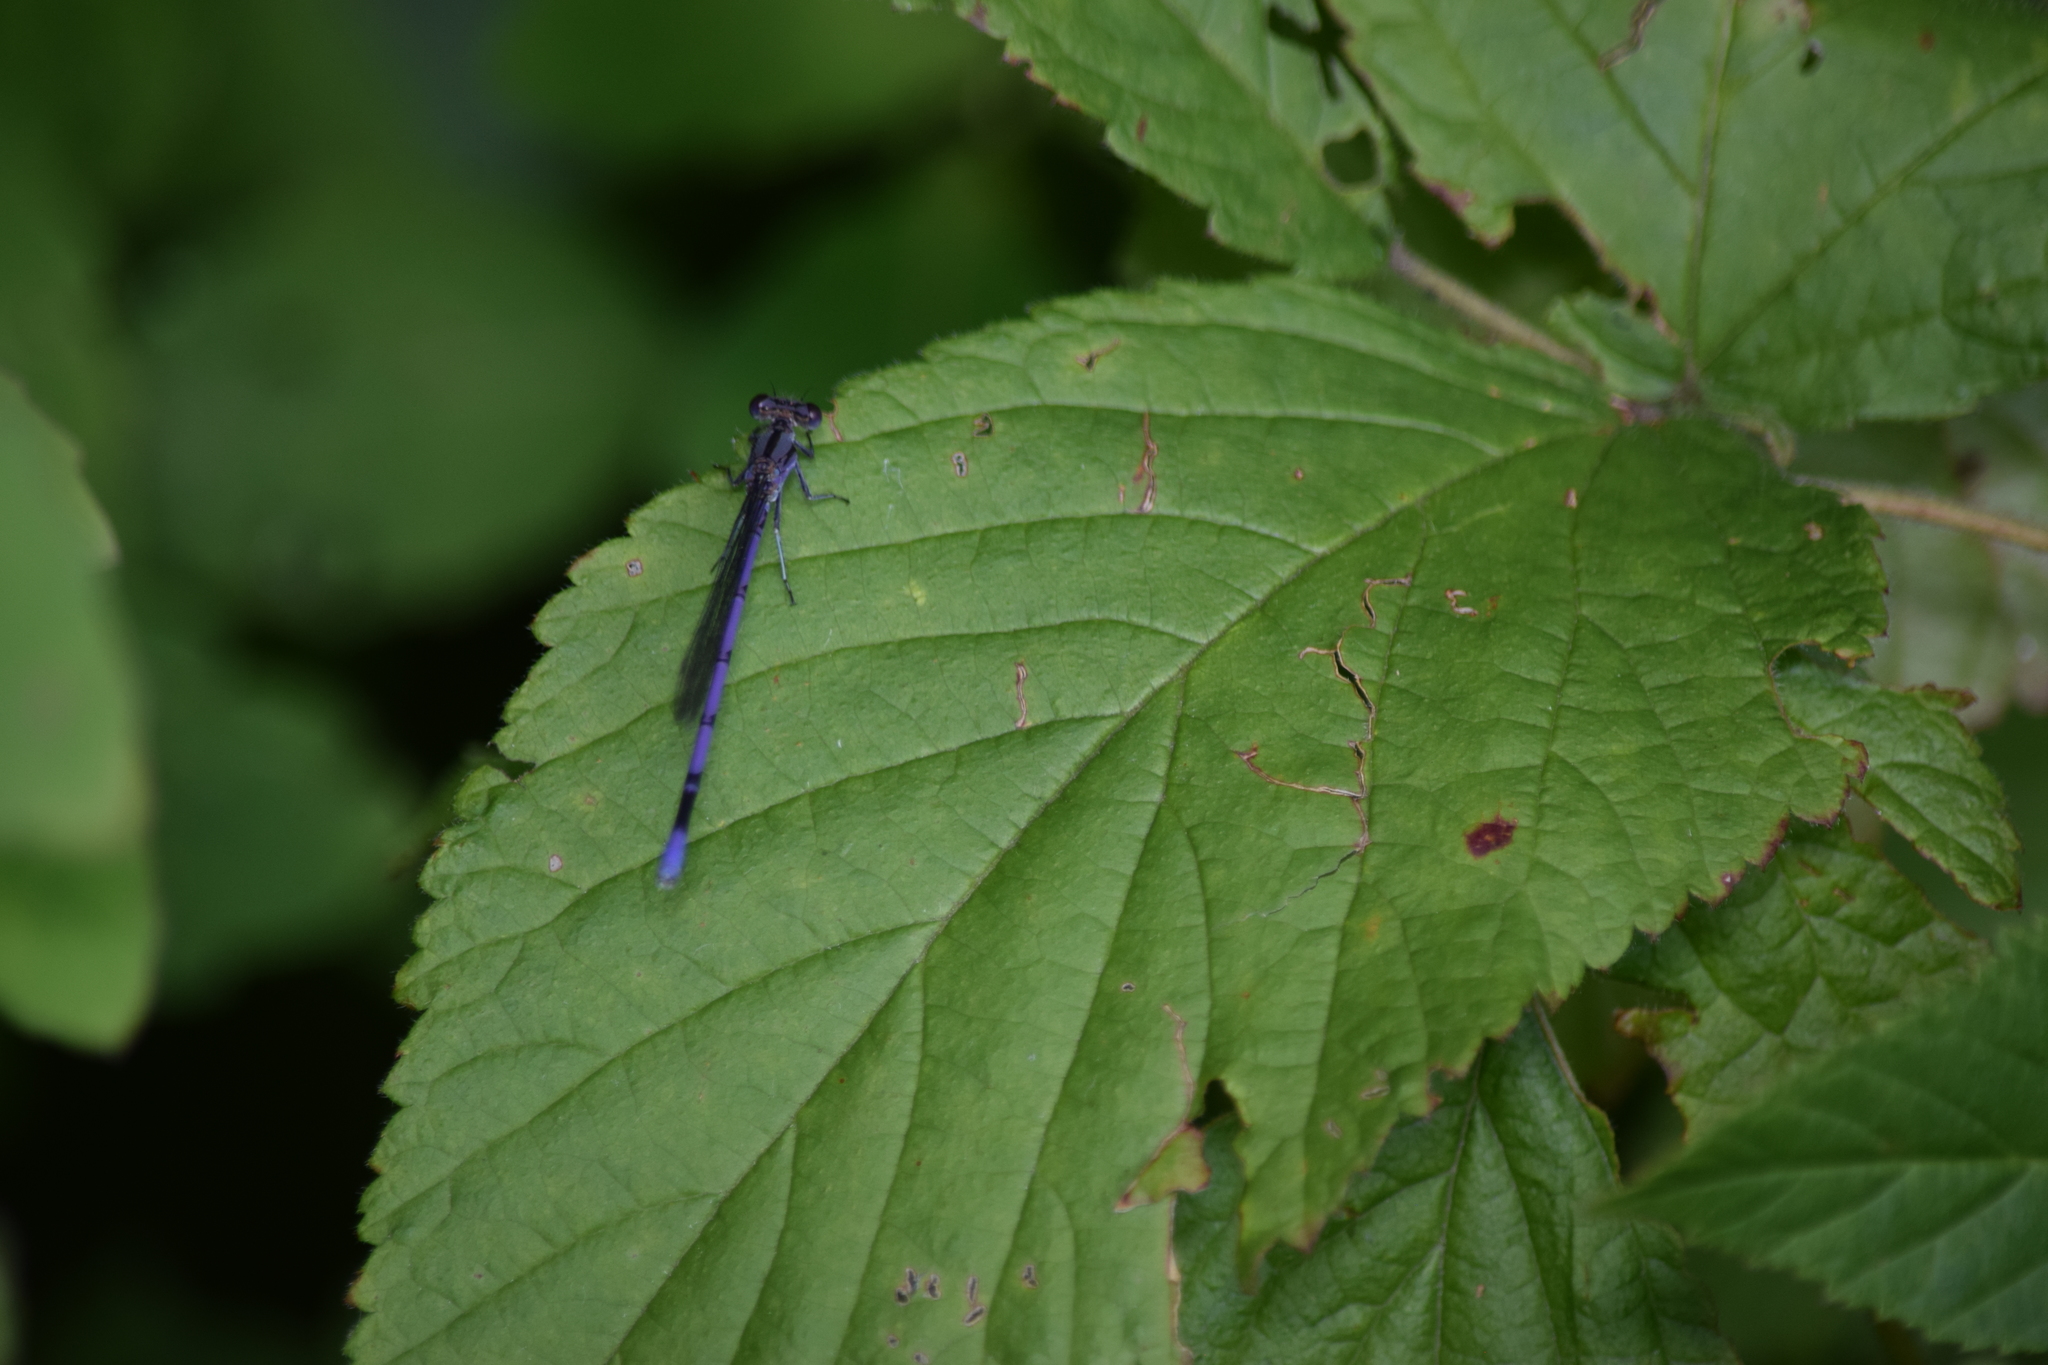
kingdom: Animalia
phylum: Arthropoda
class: Insecta
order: Odonata
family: Coenagrionidae
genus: Argia
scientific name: Argia fumipennis
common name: Variable dancer
